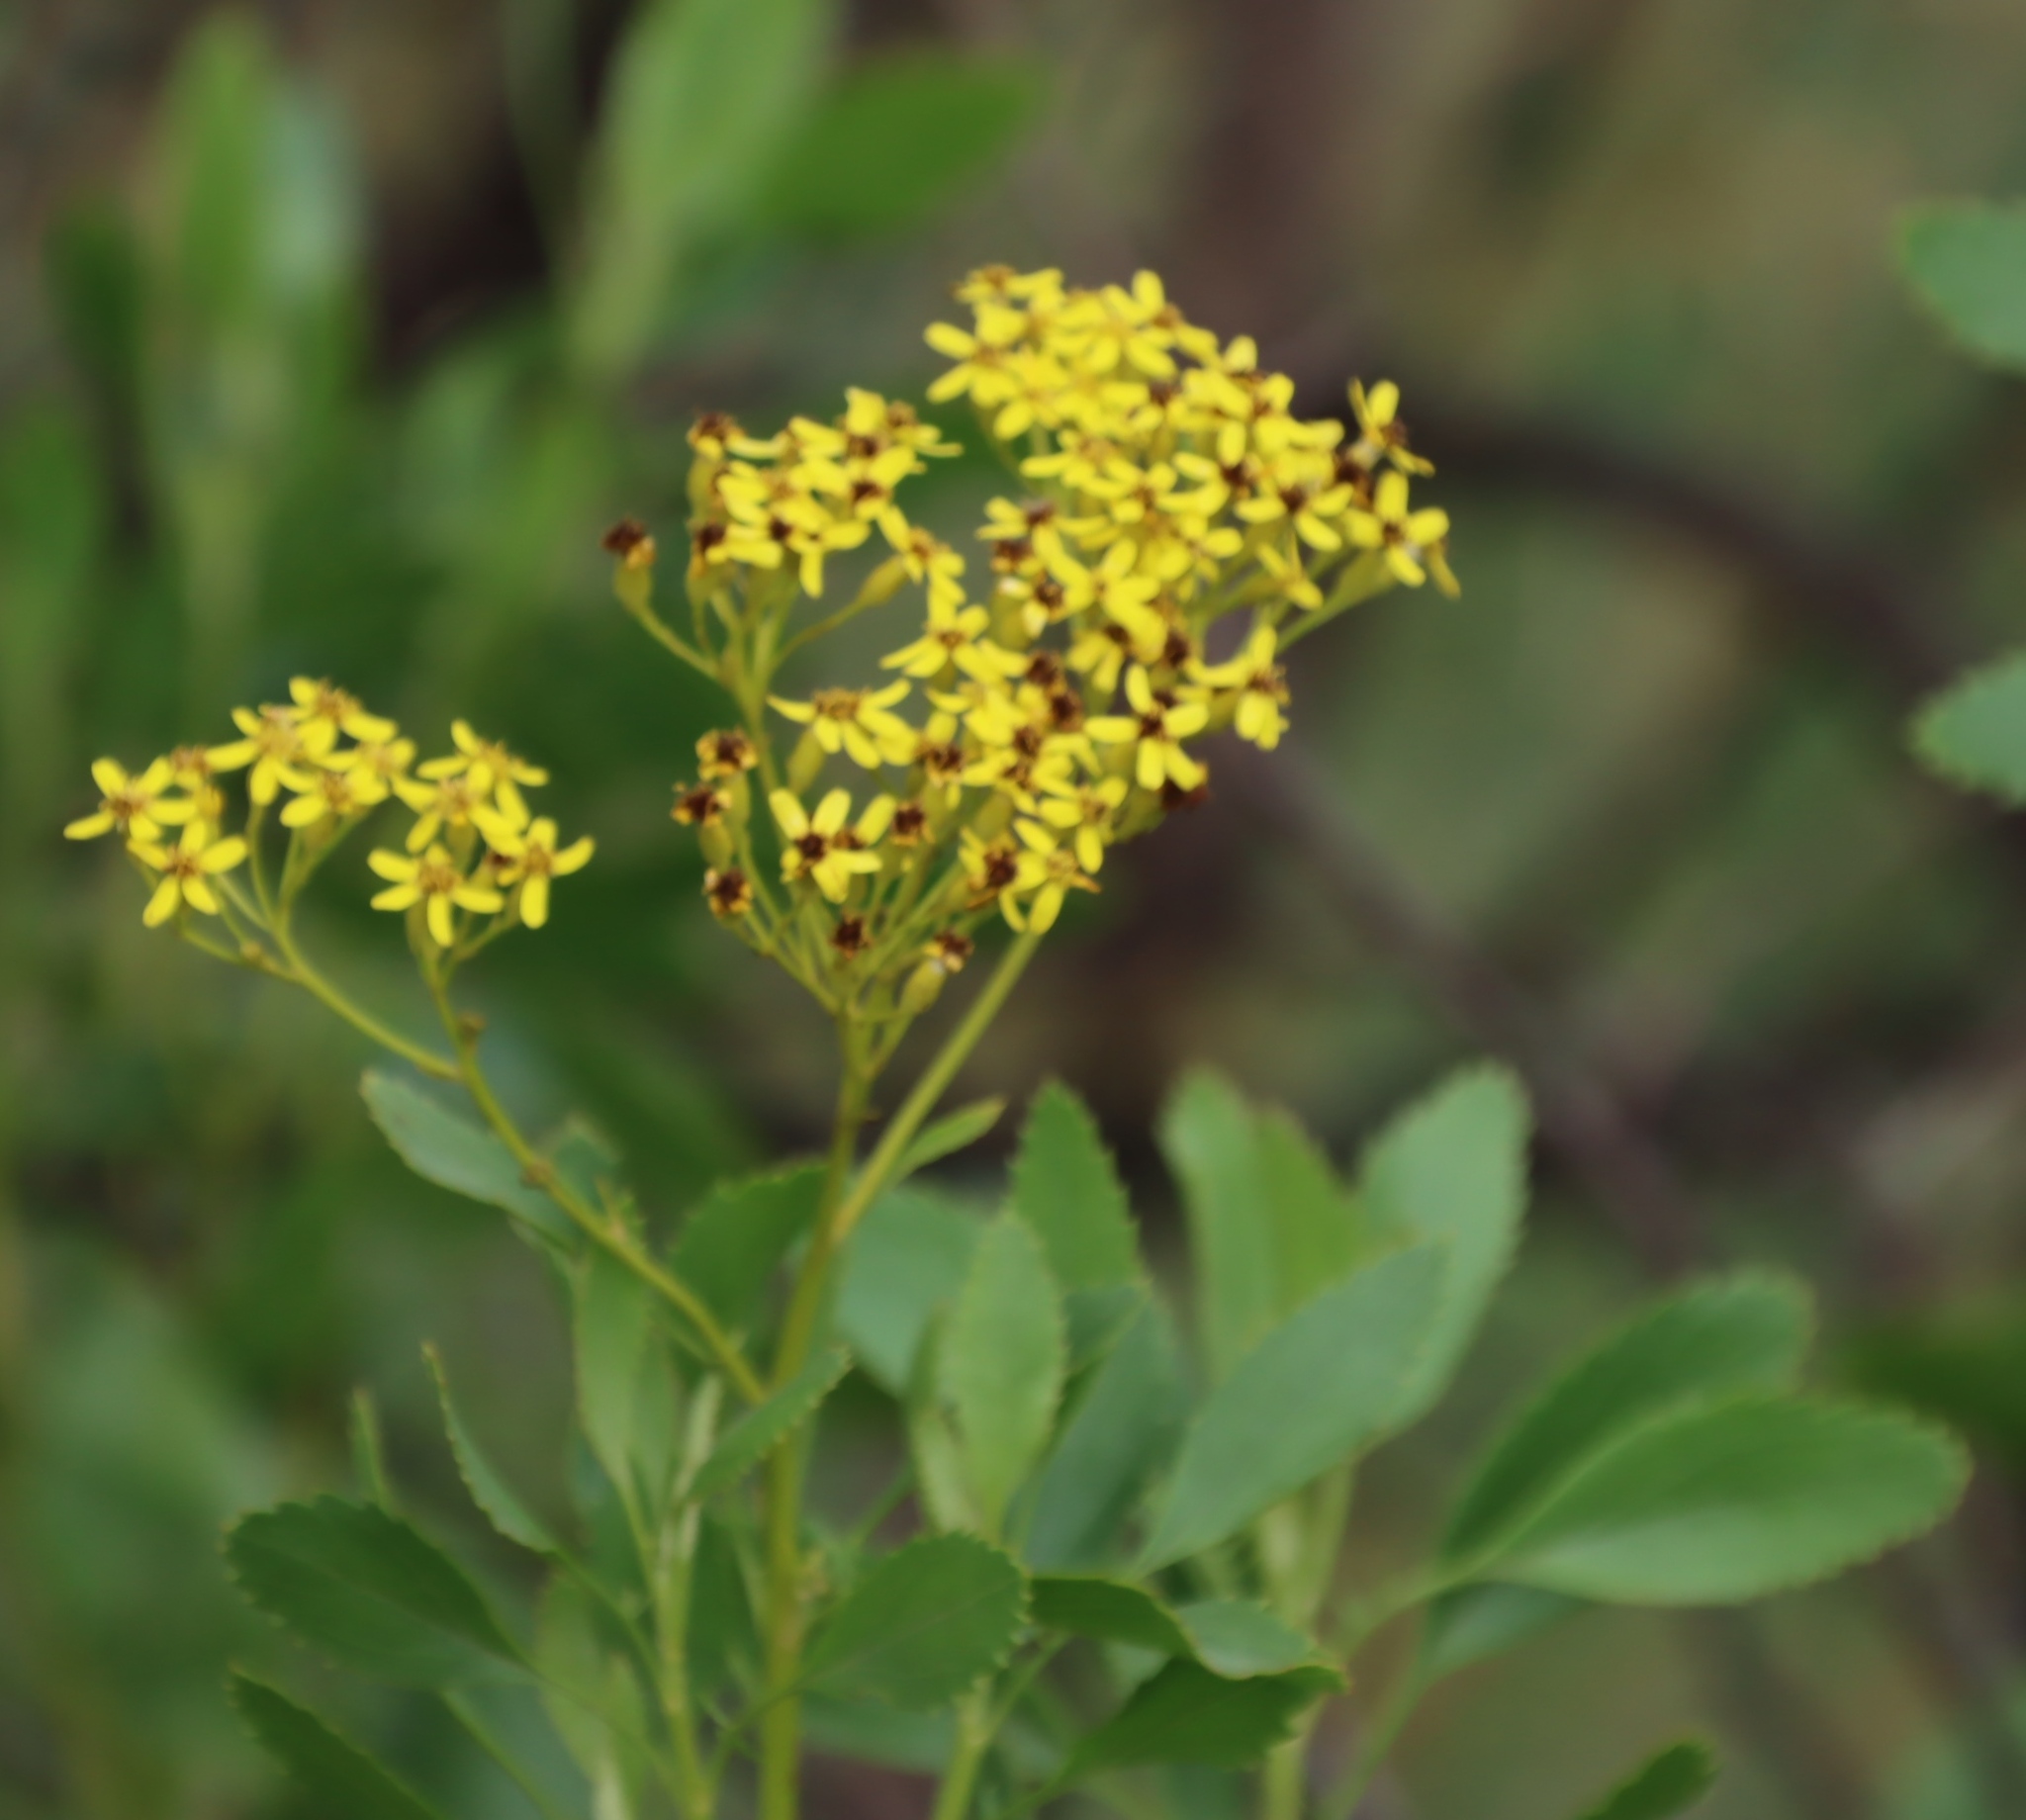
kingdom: Plantae
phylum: Tracheophyta
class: Magnoliopsida
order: Asterales
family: Asteraceae
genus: Senecio
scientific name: Senecio microglossus
